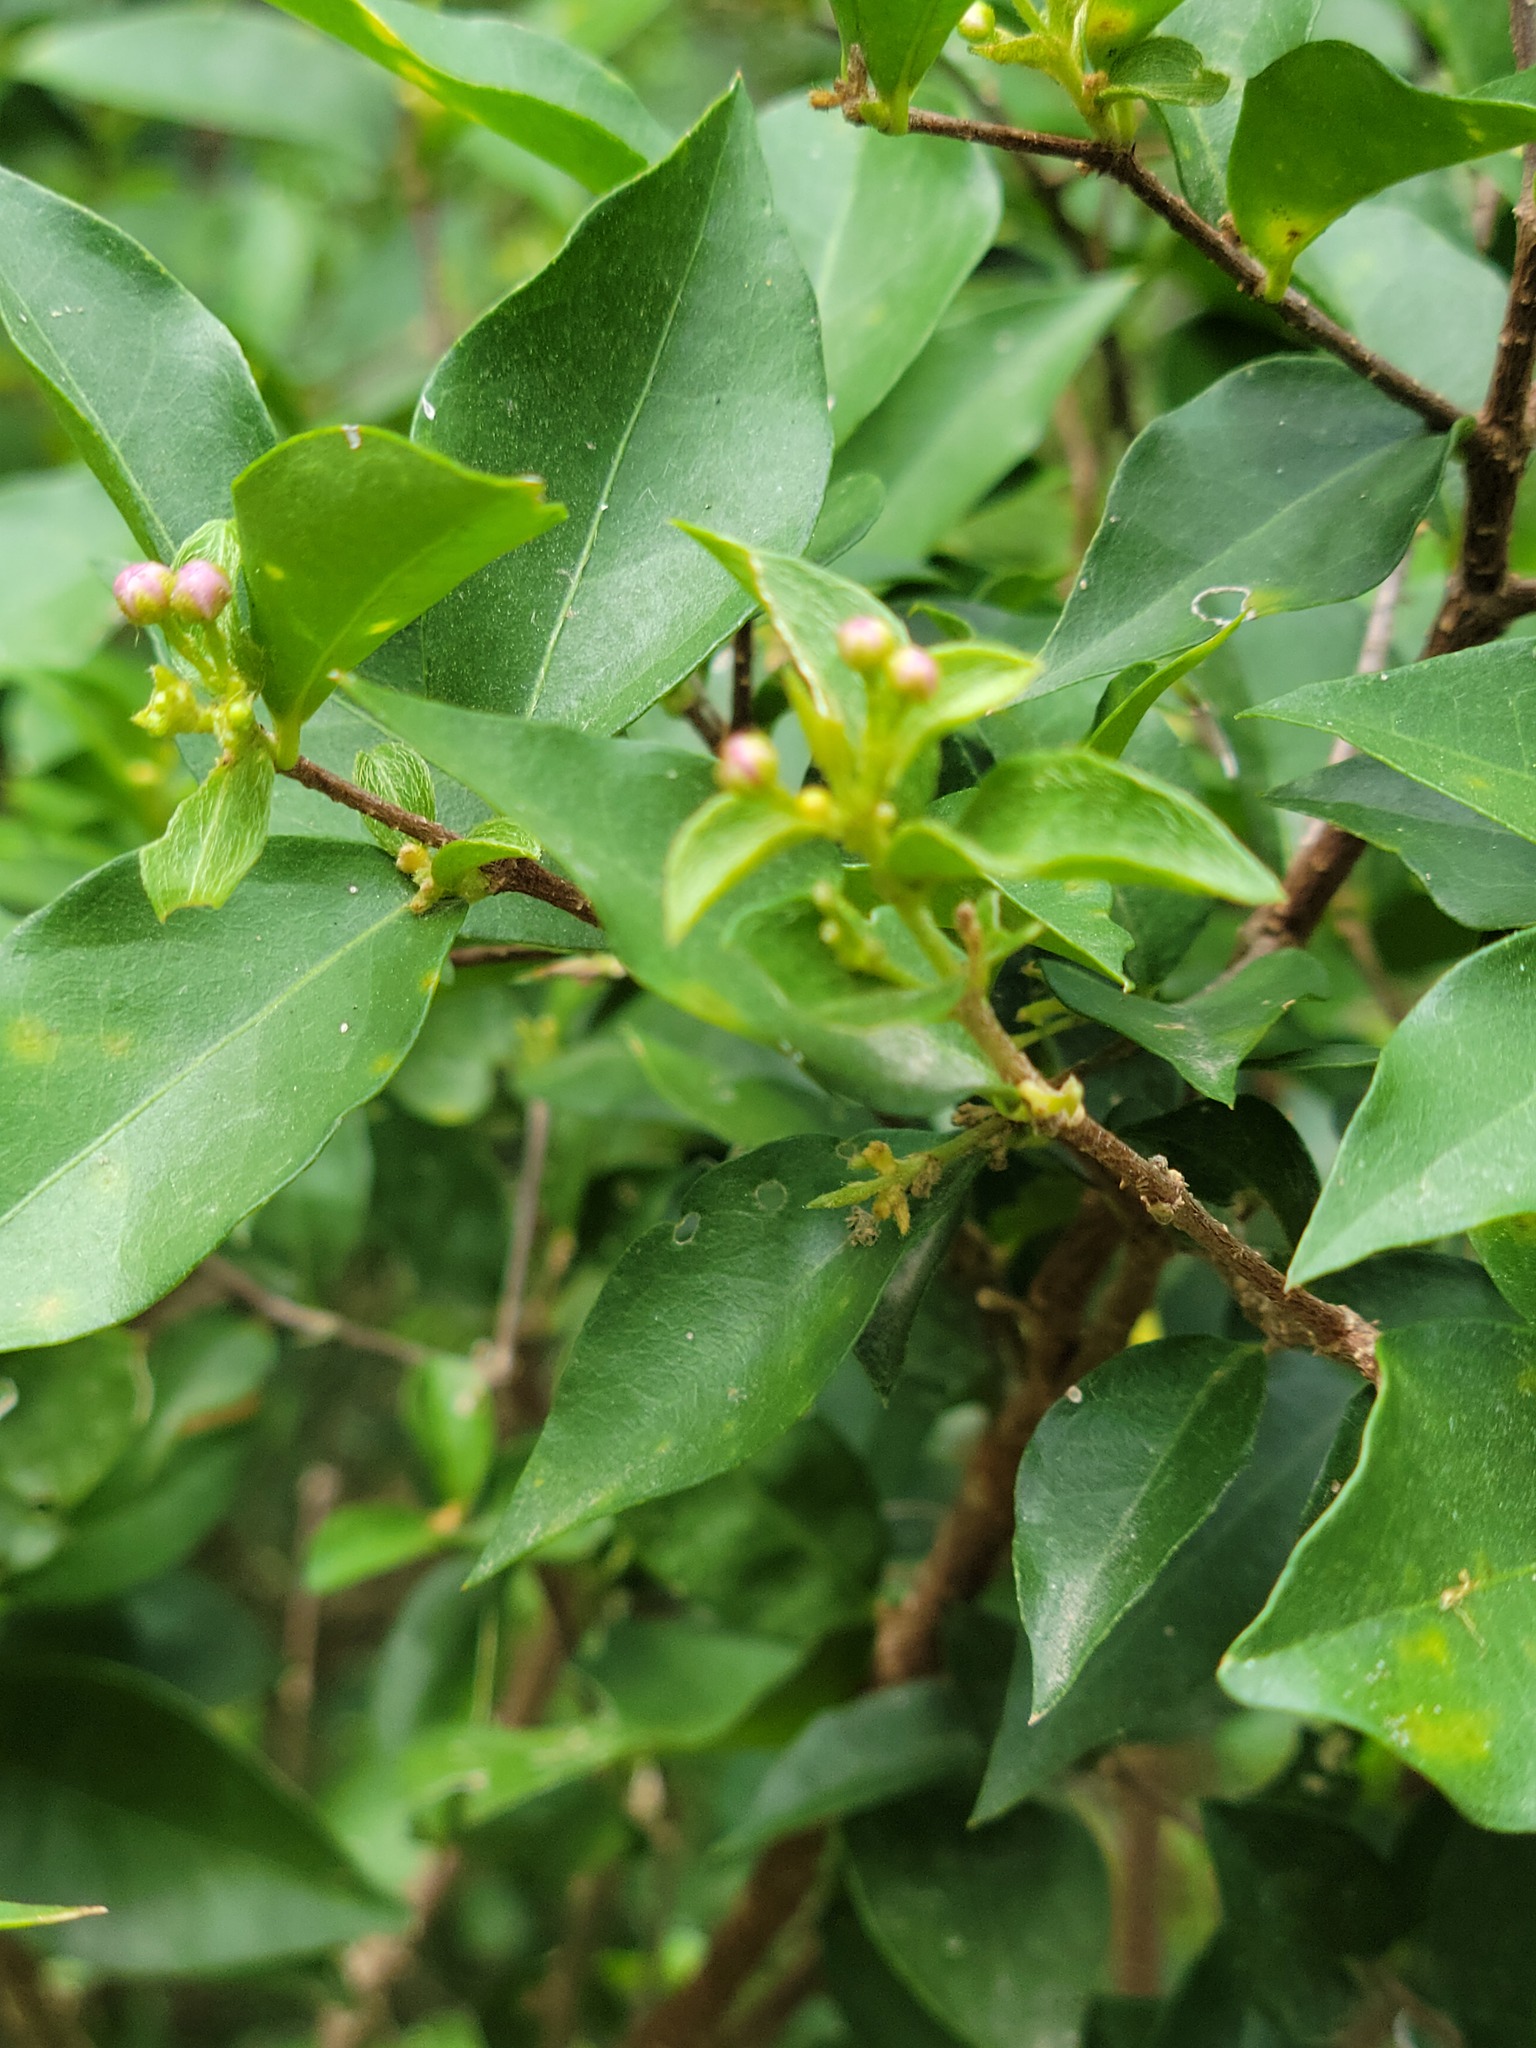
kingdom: Plantae
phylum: Tracheophyta
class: Magnoliopsida
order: Malpighiales
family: Malpighiaceae
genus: Malpighia
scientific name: Malpighia glabra
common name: Barbados cherry
